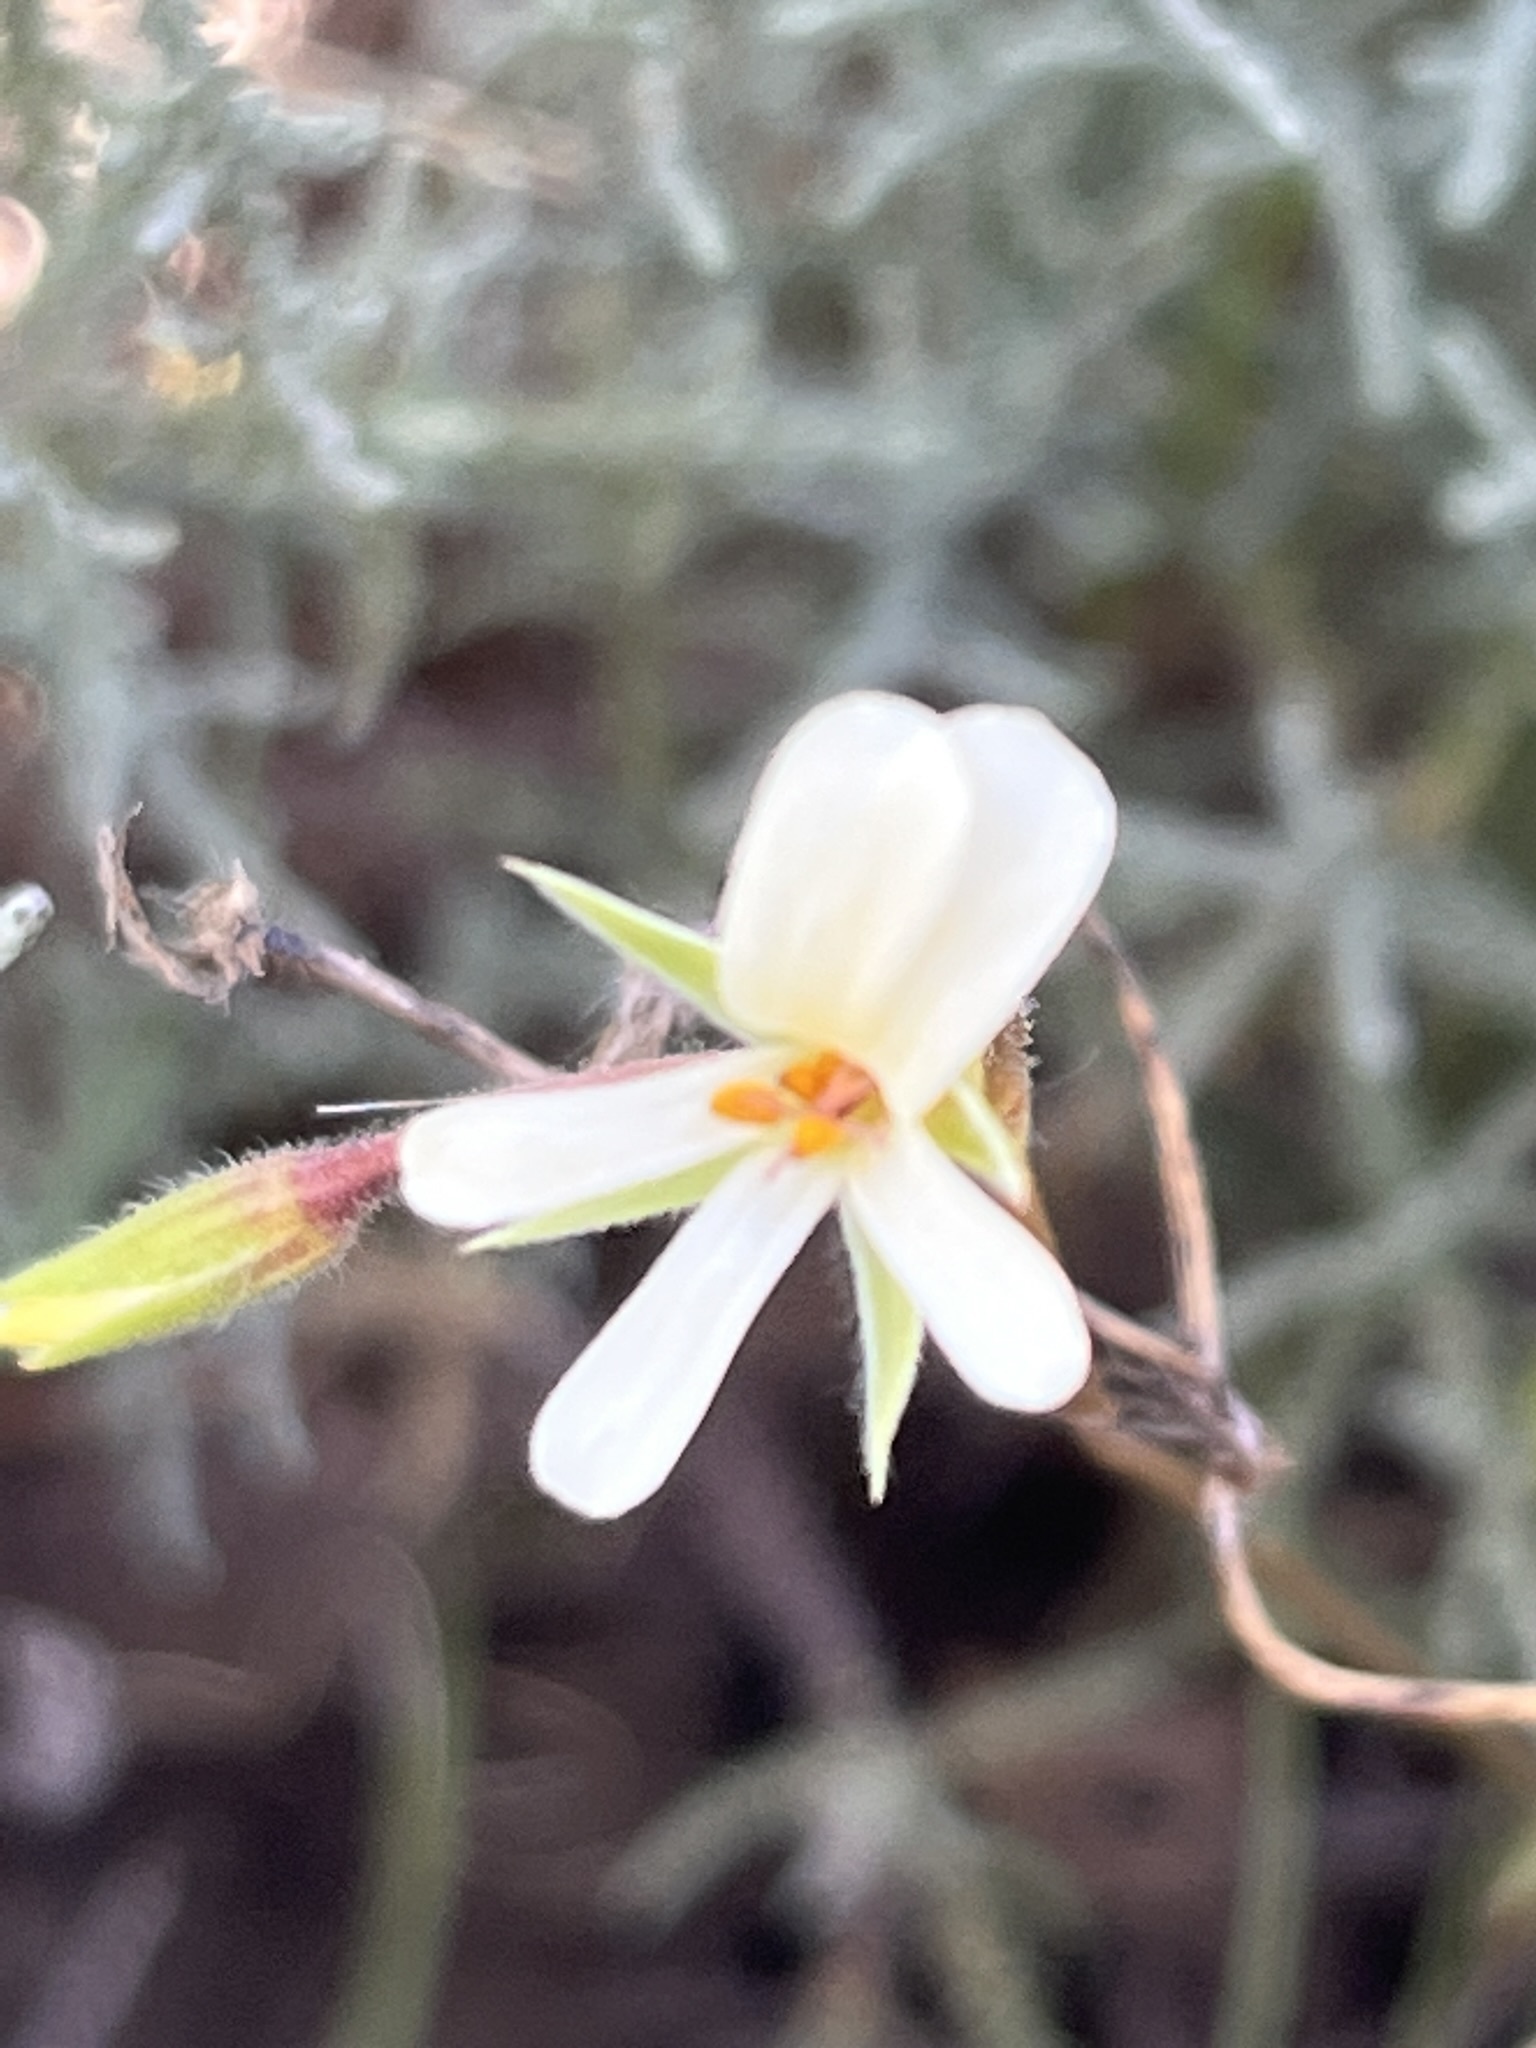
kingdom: Plantae
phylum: Tracheophyta
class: Magnoliopsida
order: Geraniales
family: Geraniaceae
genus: Pelargonium
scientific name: Pelargonium elongatum
